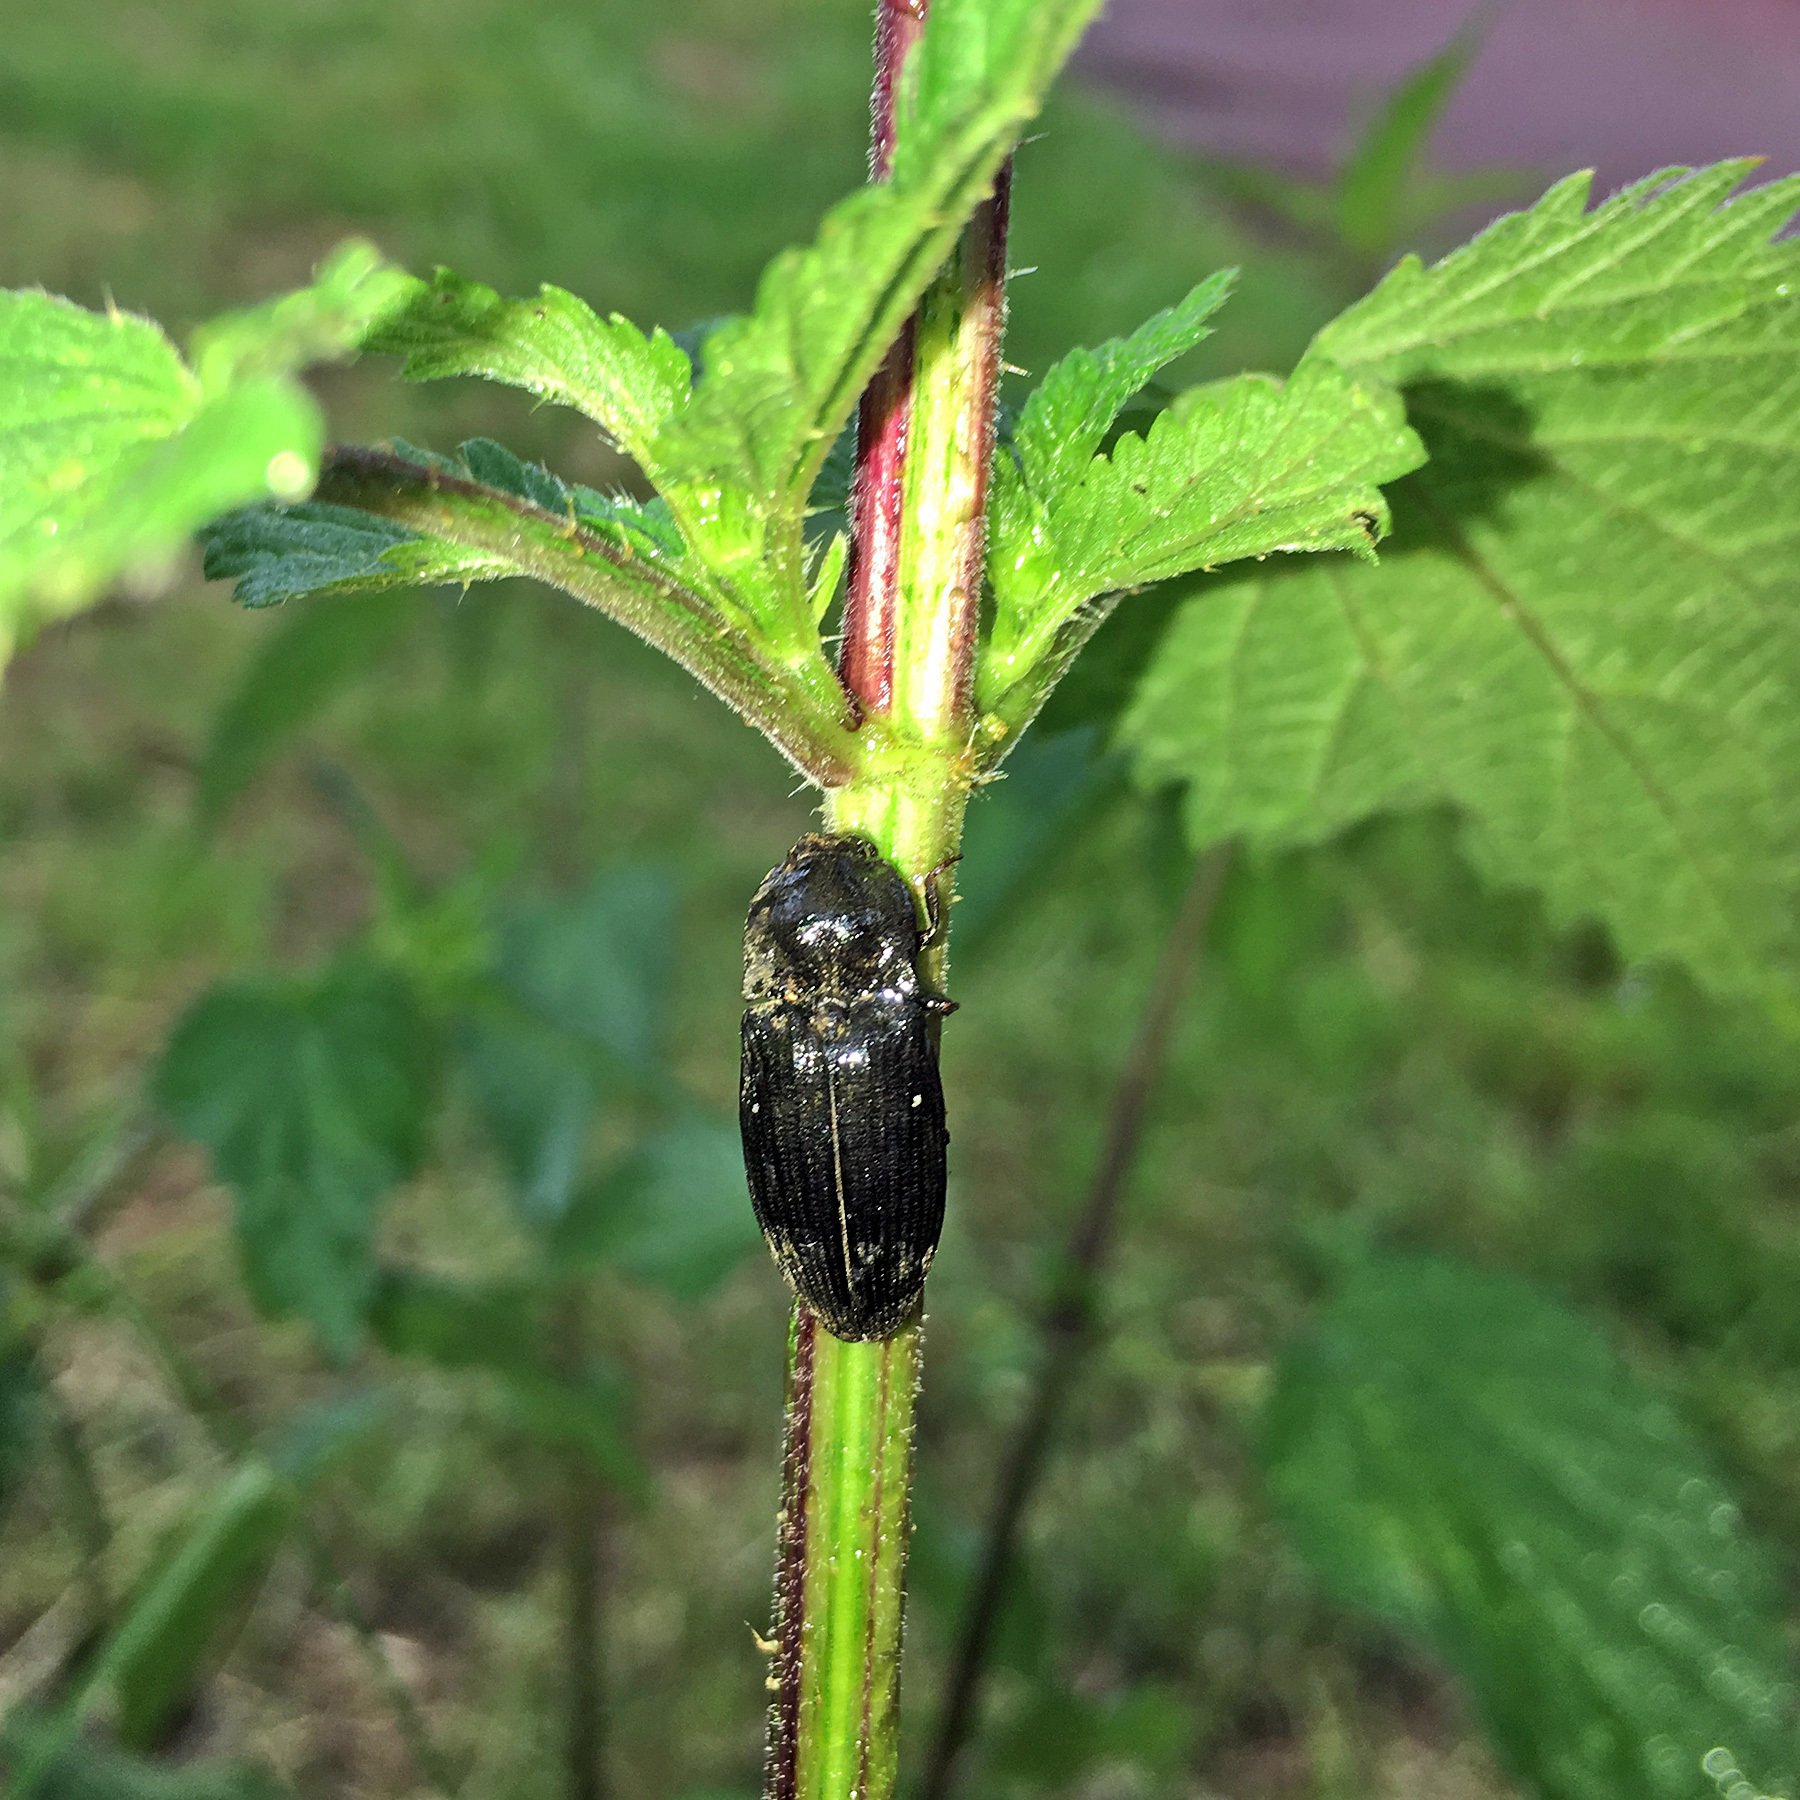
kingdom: Animalia
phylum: Arthropoda
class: Insecta
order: Coleoptera
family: Elateridae
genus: Agrypnus
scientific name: Agrypnus murinus
